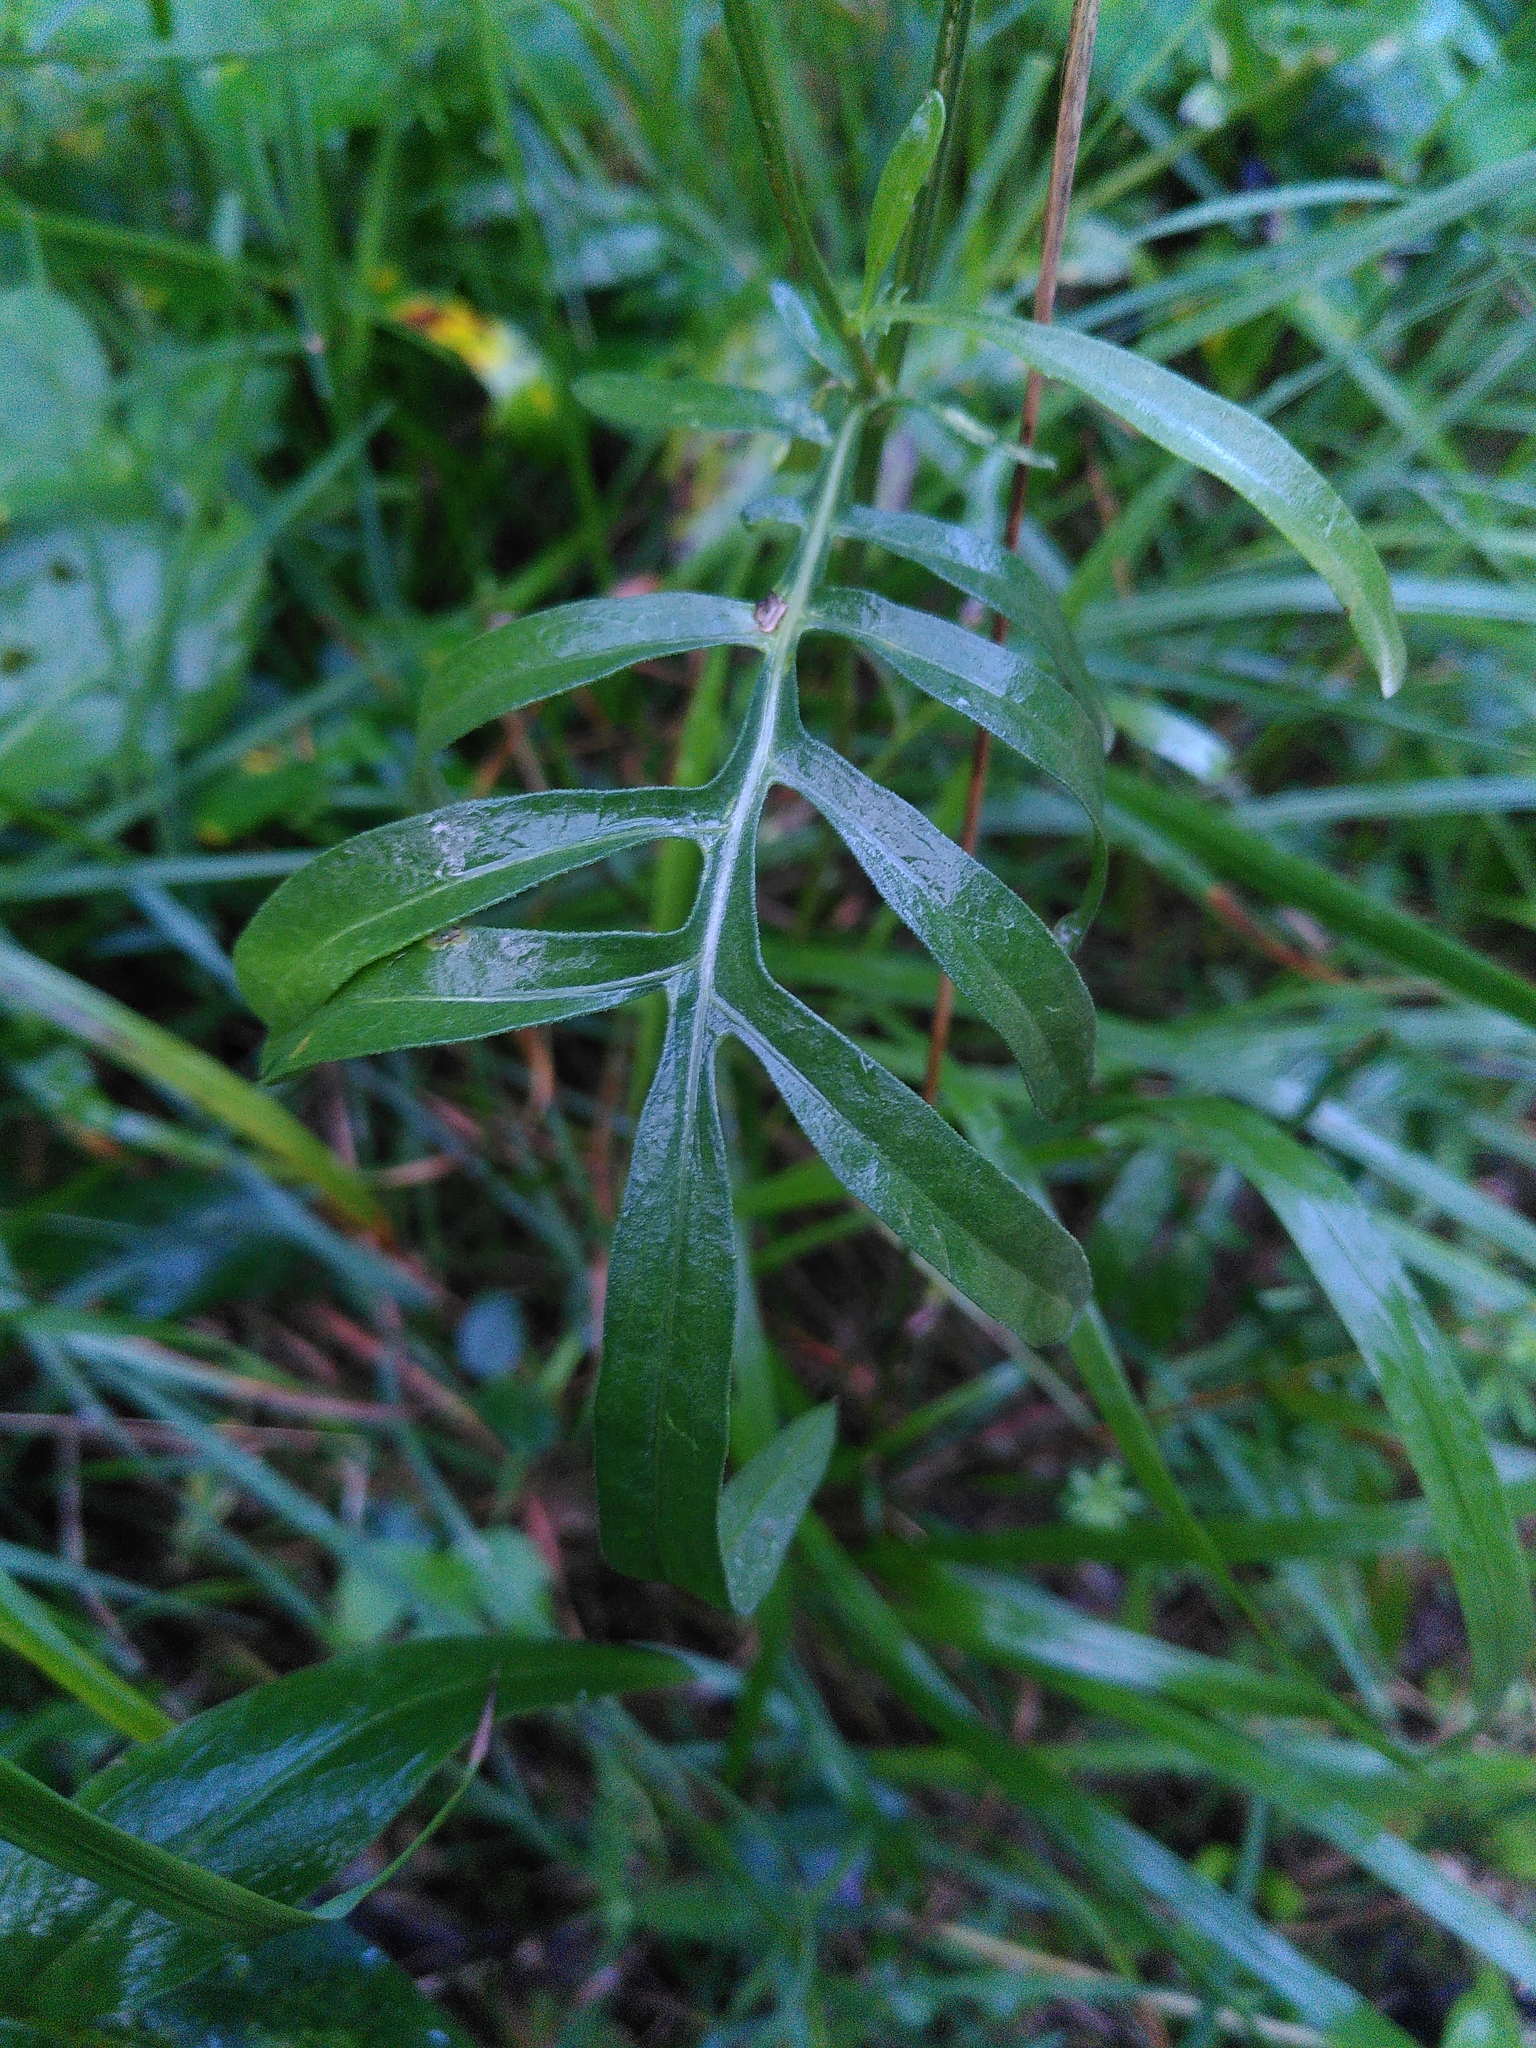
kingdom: Plantae
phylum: Tracheophyta
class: Magnoliopsida
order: Asterales
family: Asteraceae
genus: Centaurea
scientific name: Centaurea scabiosa
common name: Greater knapweed
